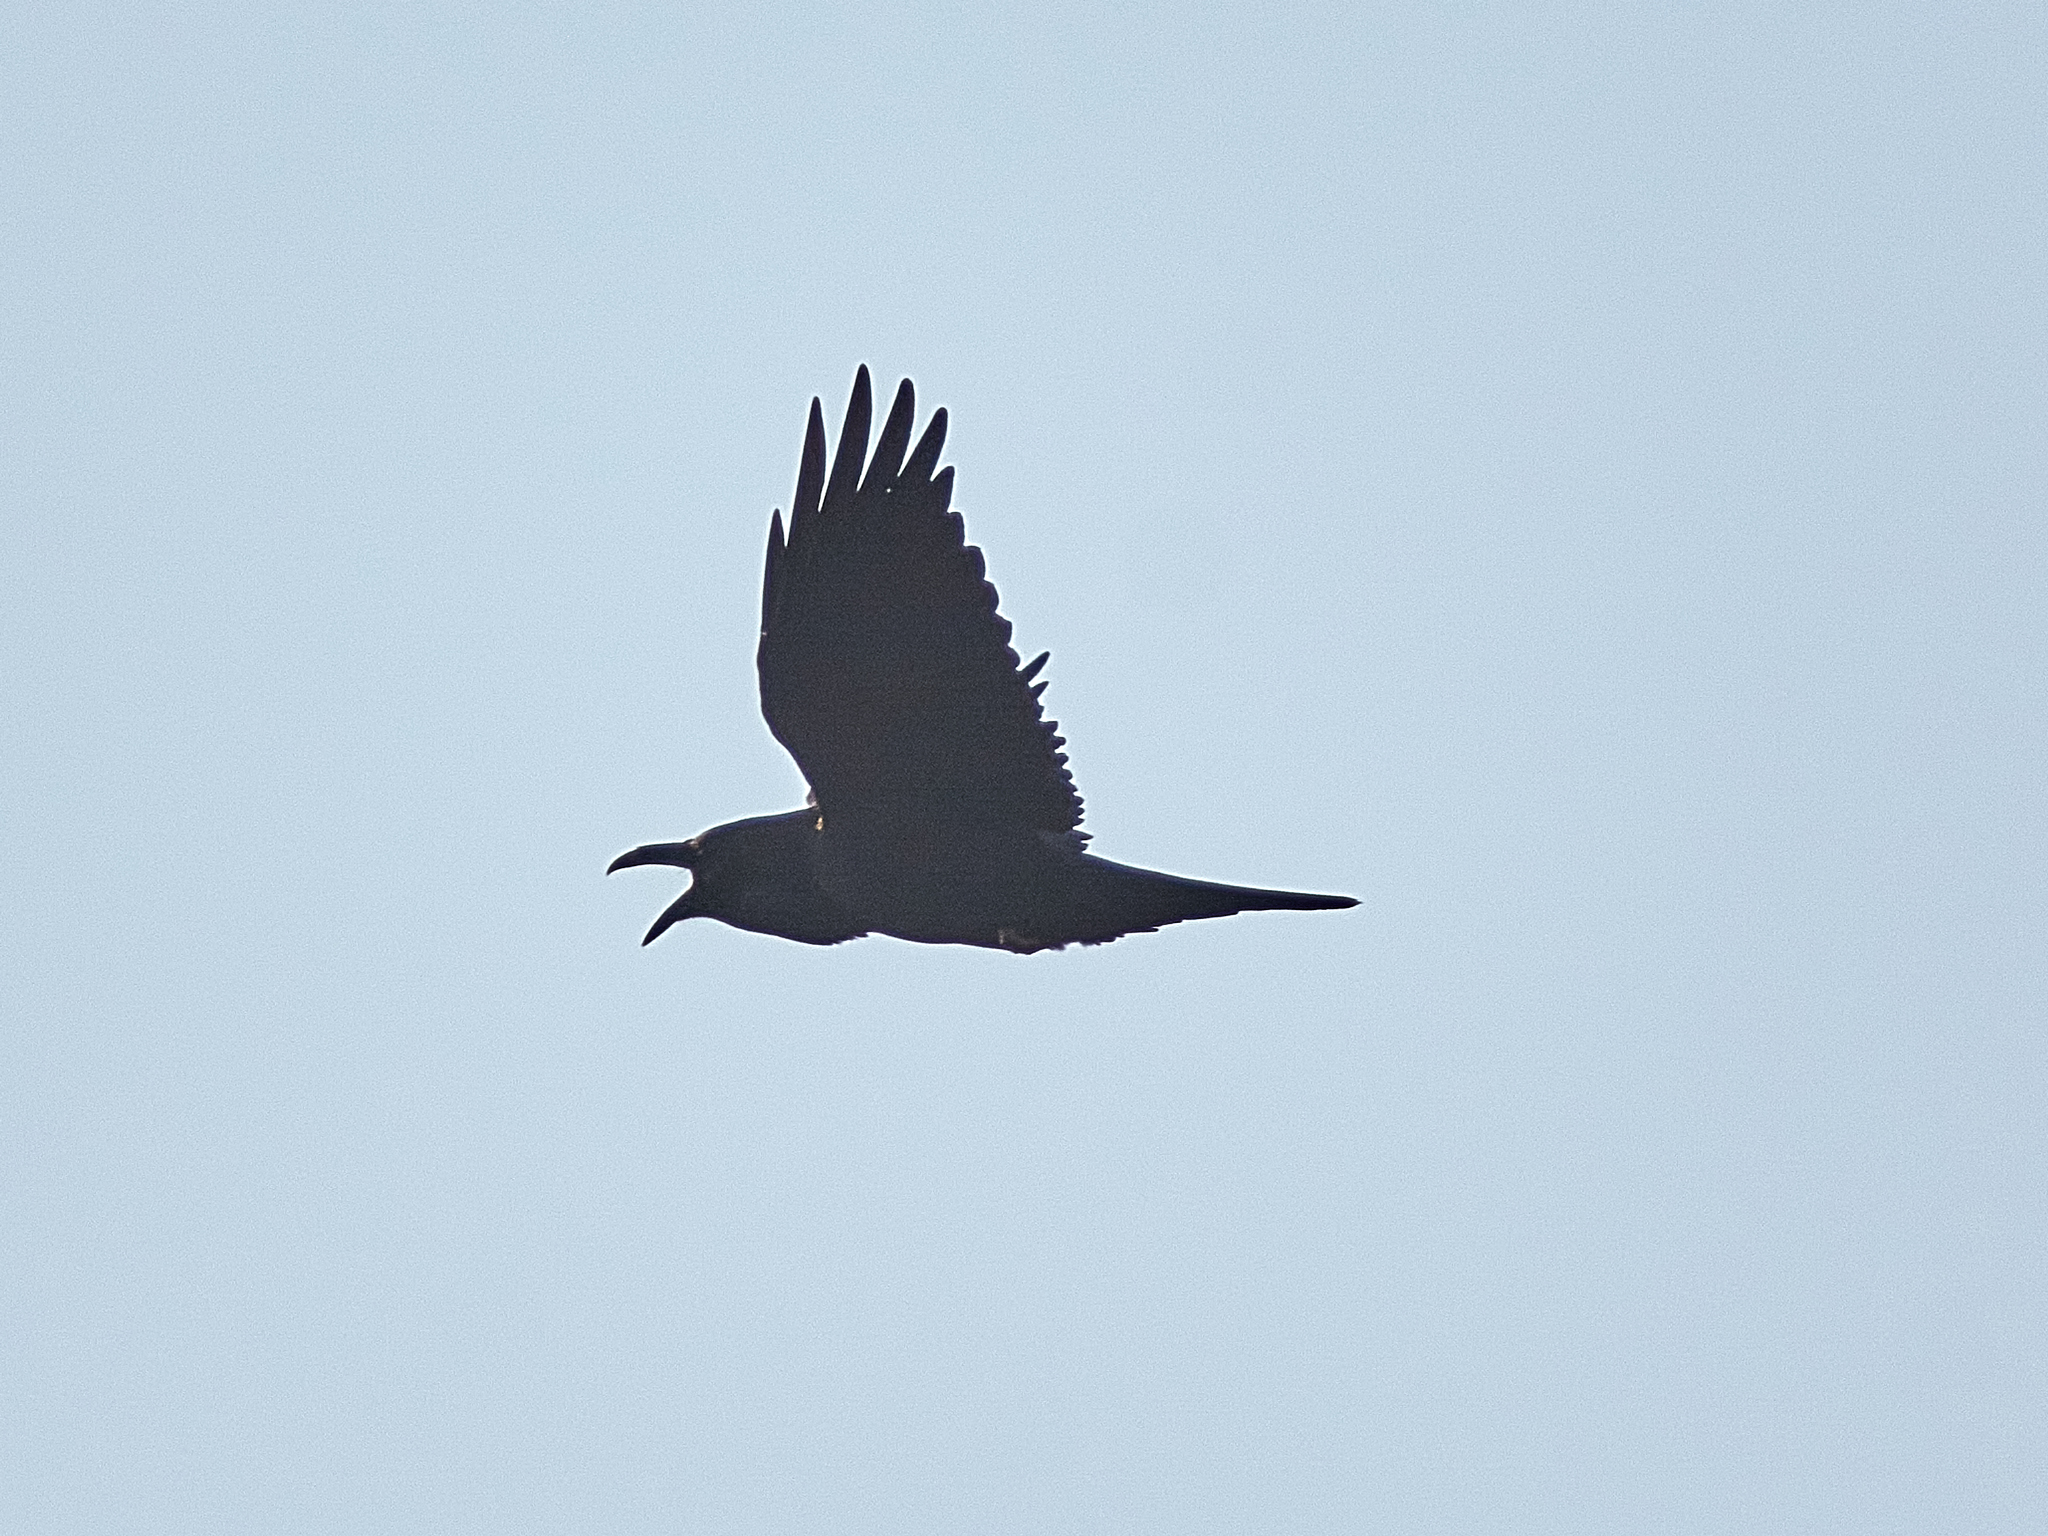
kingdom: Animalia
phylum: Chordata
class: Aves
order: Passeriformes
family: Corvidae
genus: Corvus
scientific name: Corvus corax
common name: Common raven
